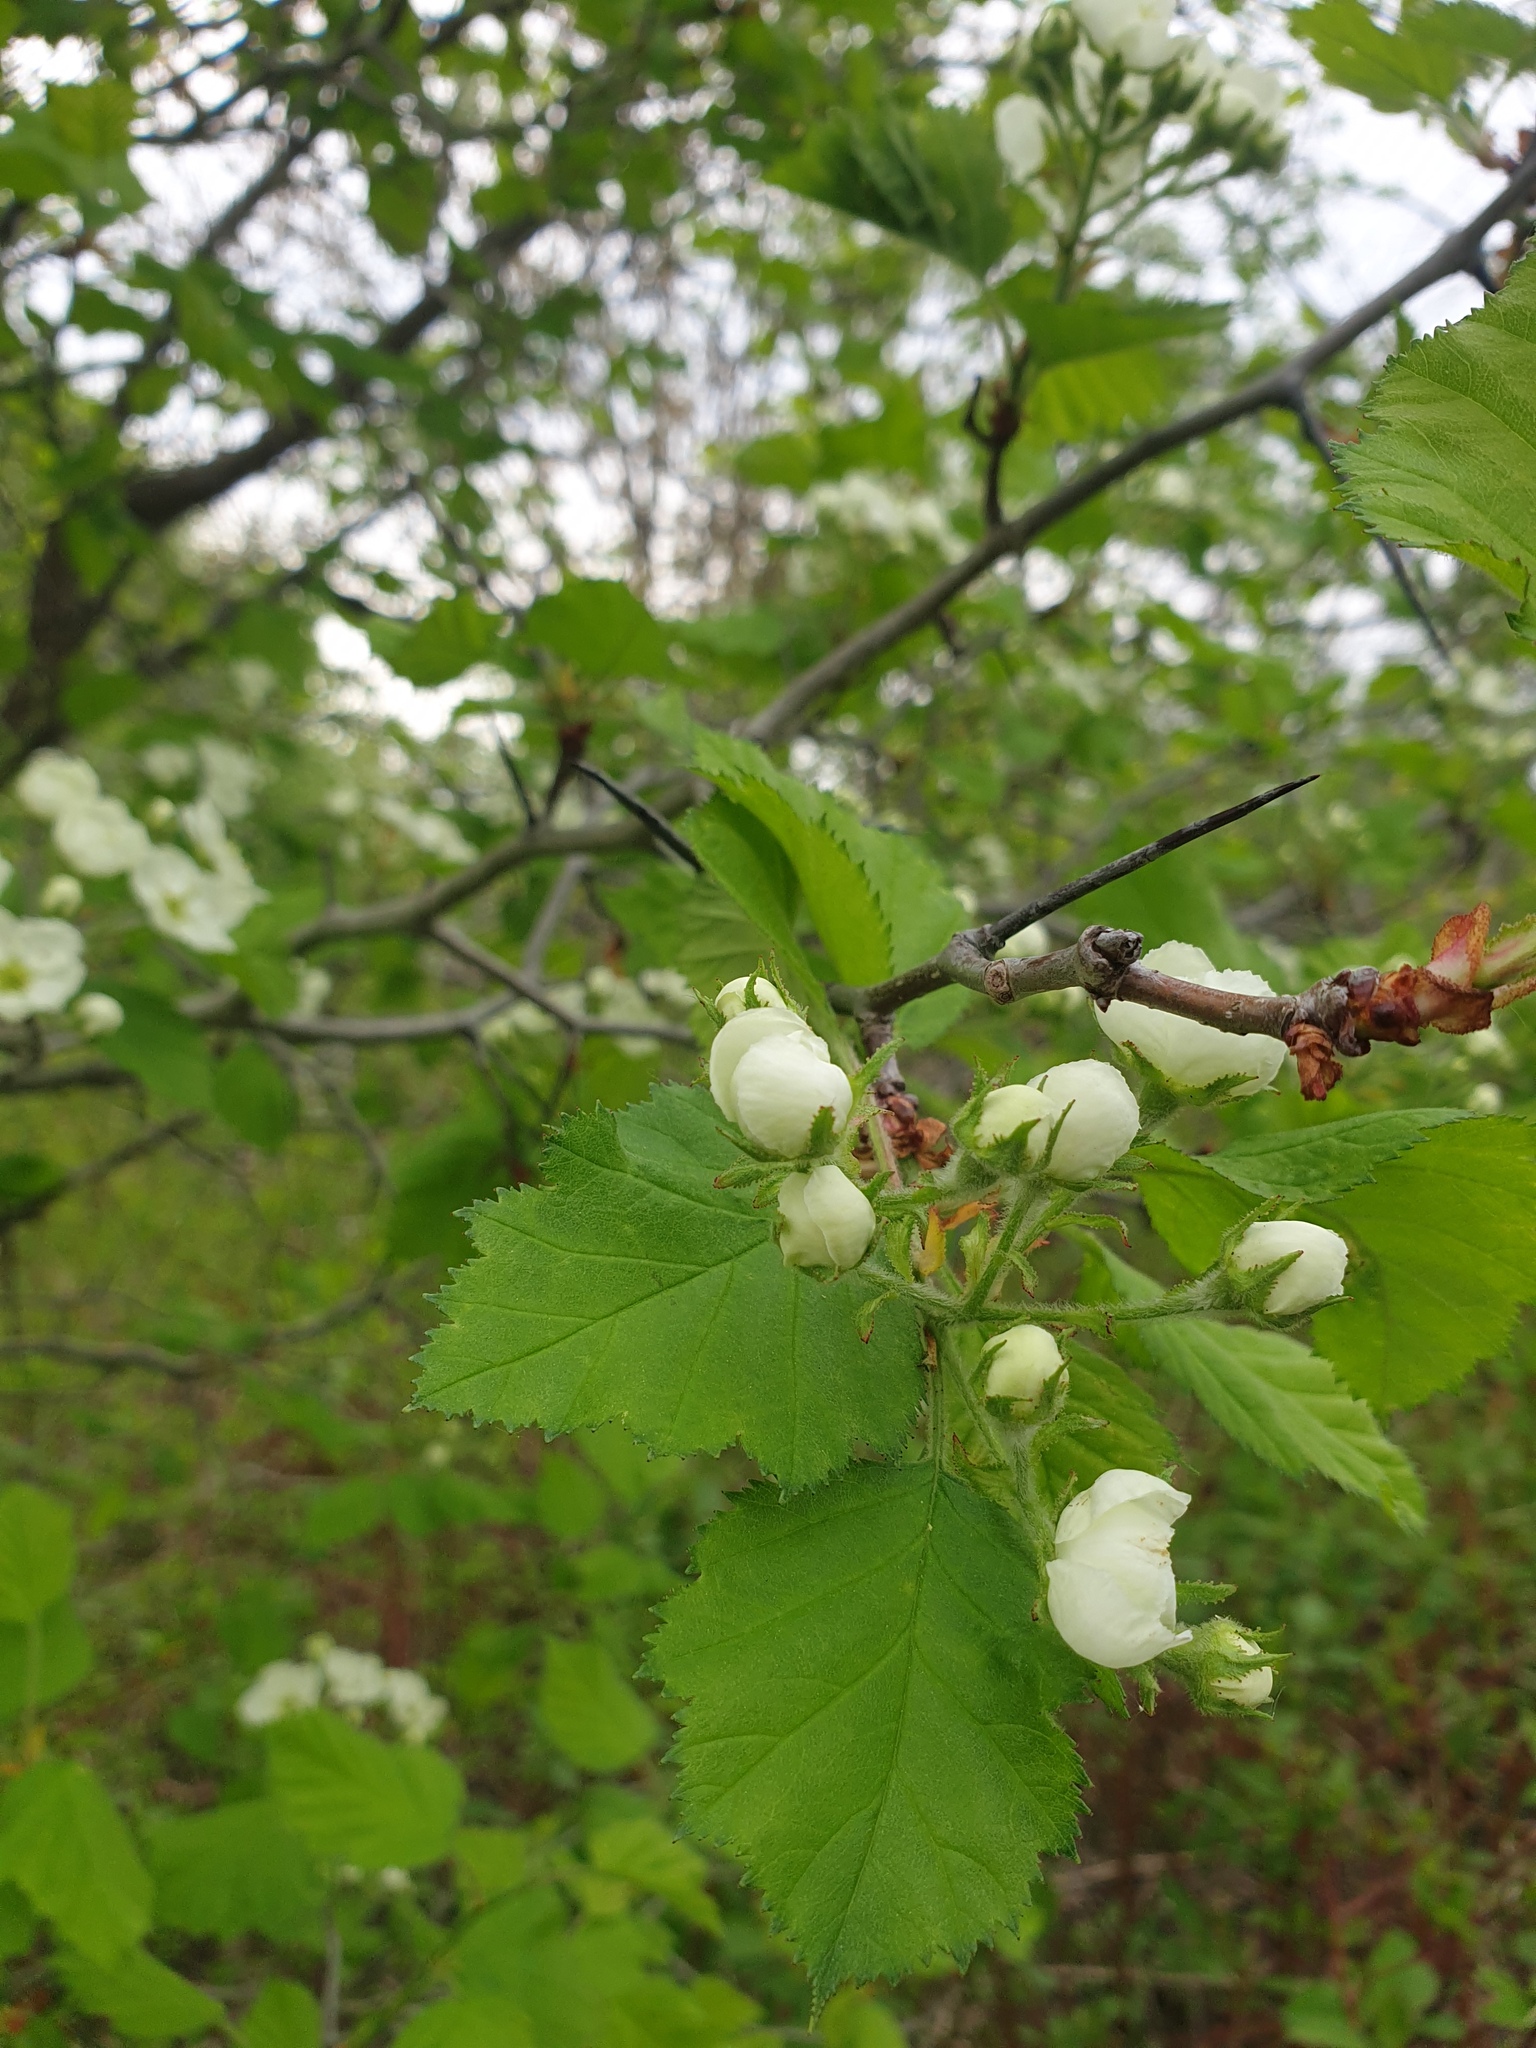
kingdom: Plantae
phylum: Tracheophyta
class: Magnoliopsida
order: Rosales
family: Rosaceae
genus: Crataegus
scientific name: Crataegus submollis
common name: Hairy cockspurthorn
